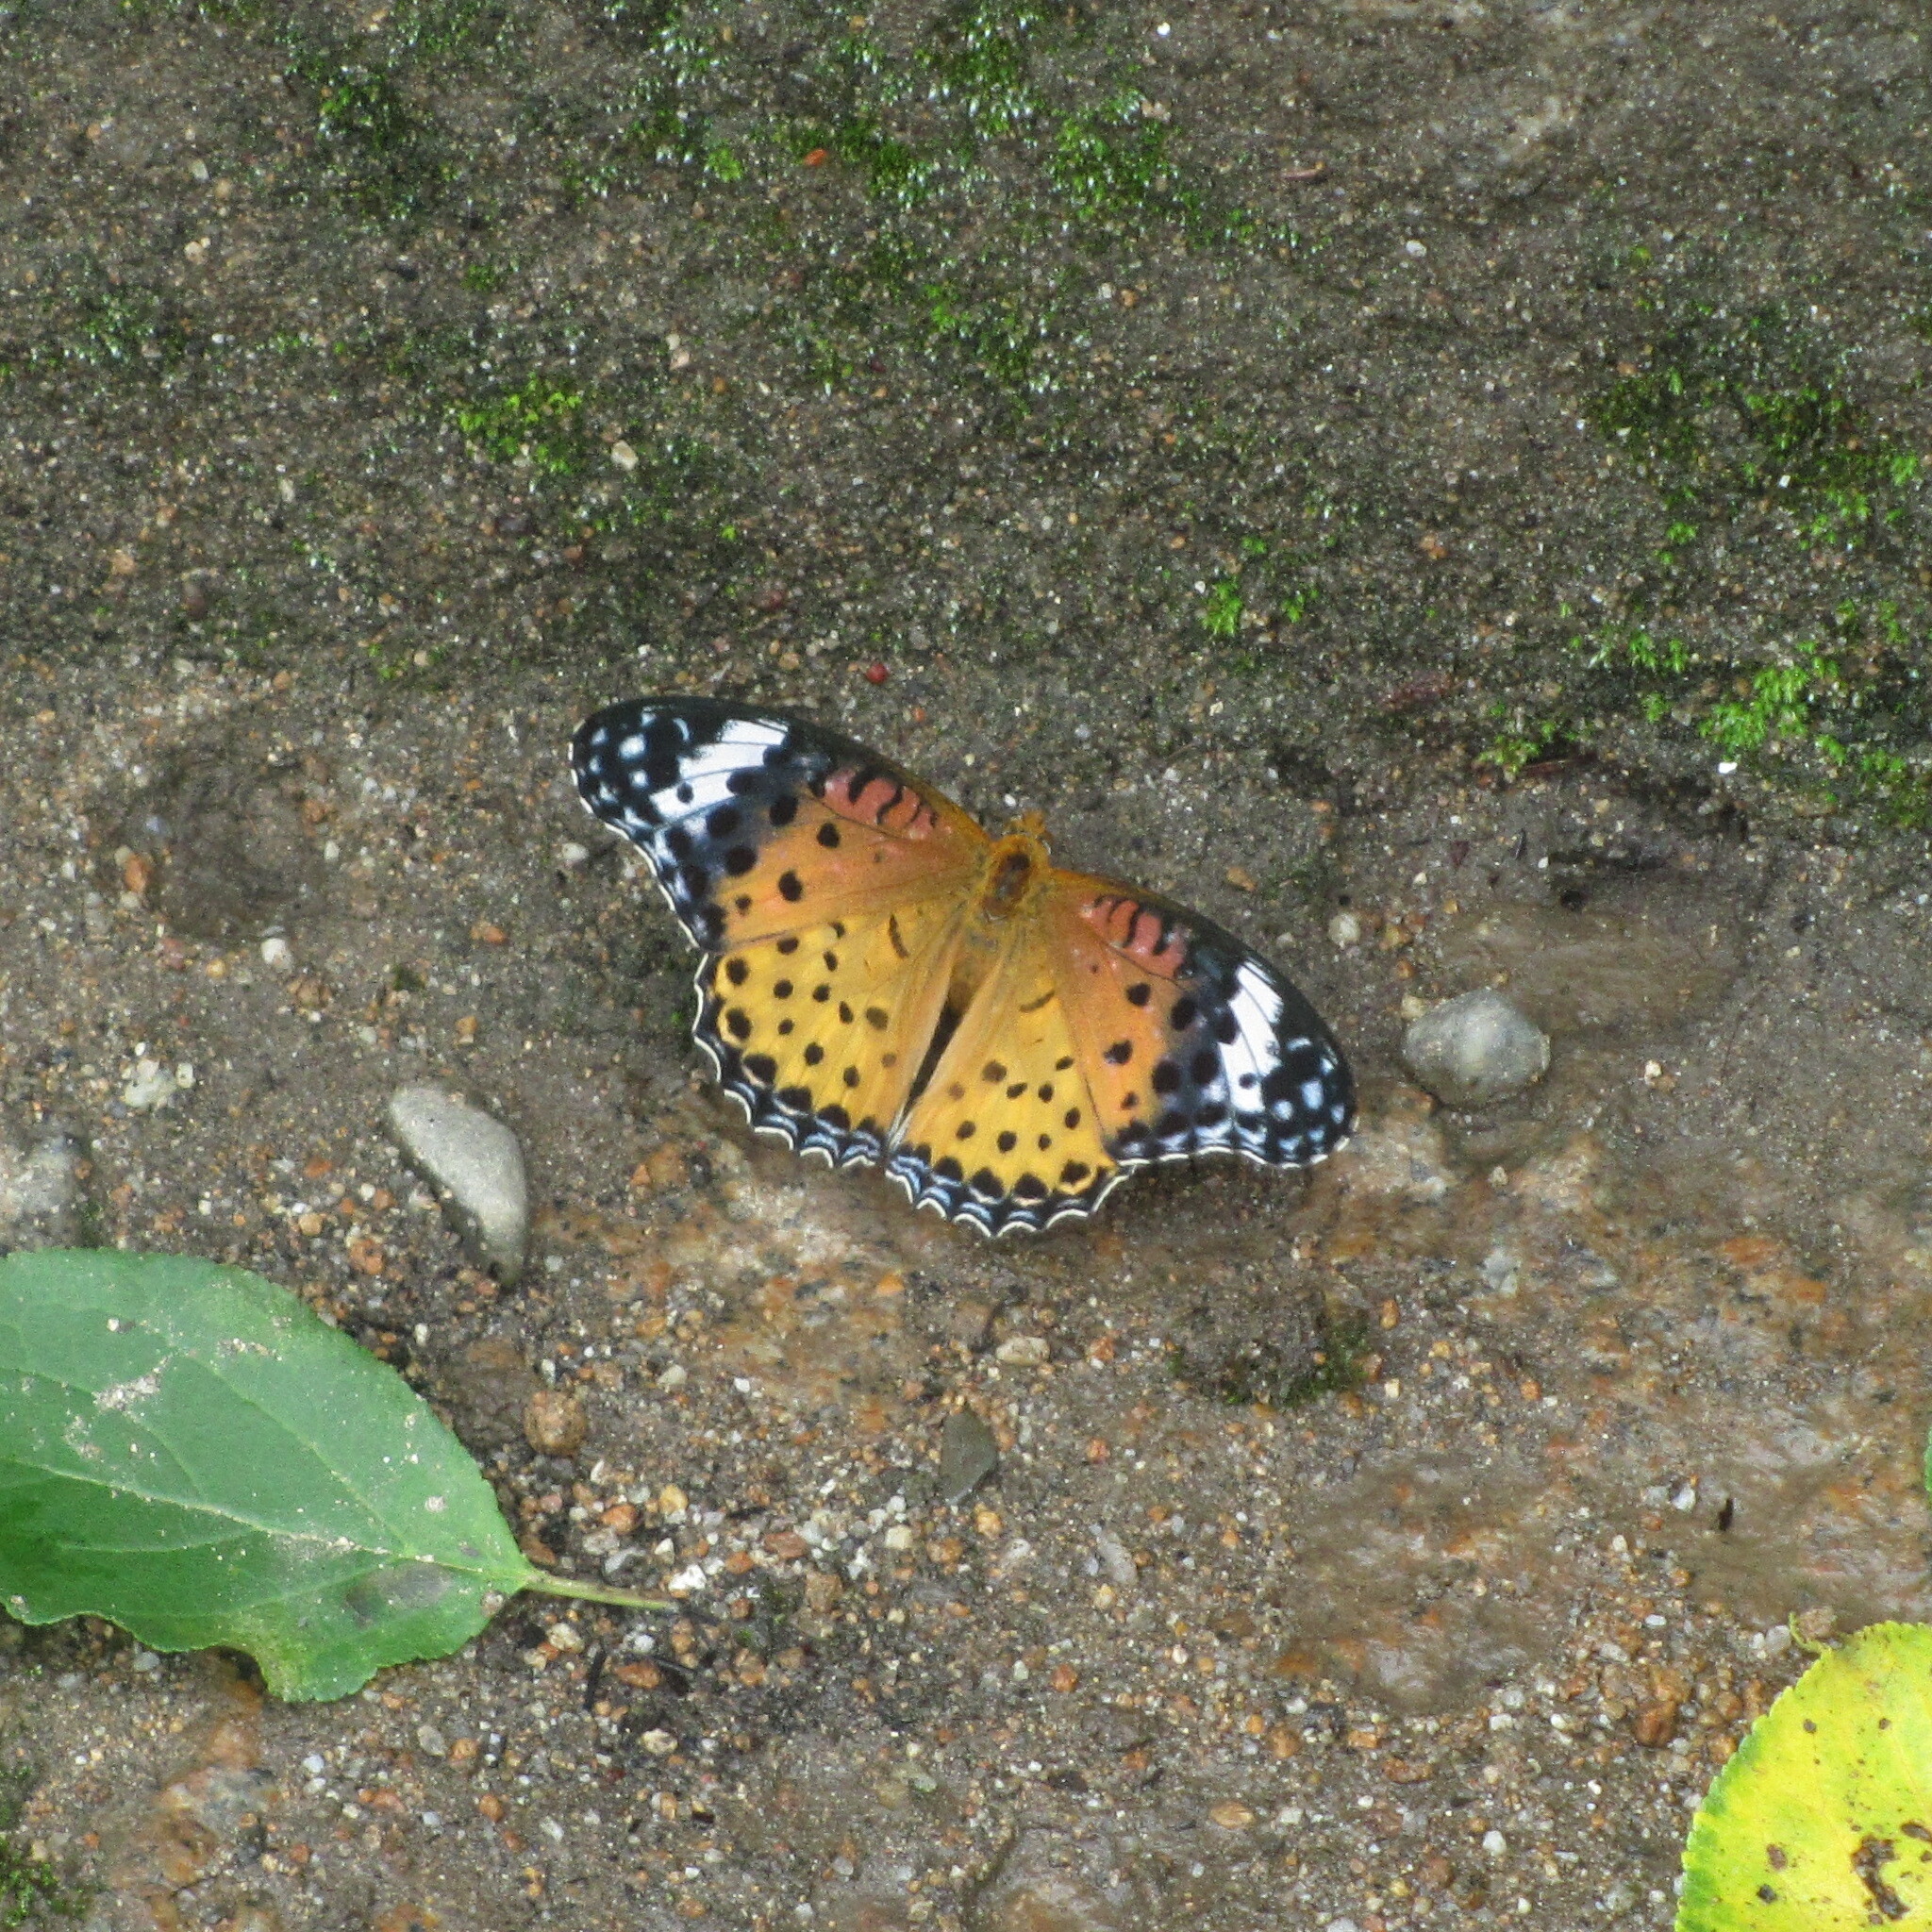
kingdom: Animalia
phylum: Arthropoda
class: Insecta
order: Lepidoptera
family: Nymphalidae
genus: Argynnis
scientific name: Argynnis hyperbius
